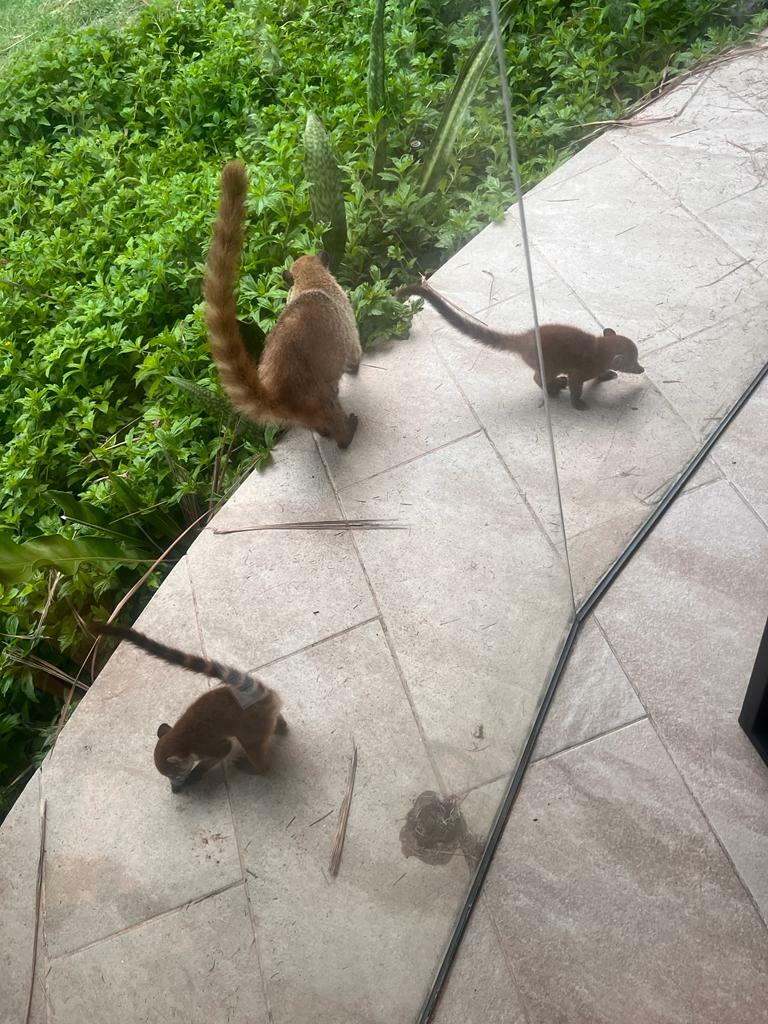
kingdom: Animalia
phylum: Chordata
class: Mammalia
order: Carnivora
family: Procyonidae
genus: Nasua
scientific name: Nasua narica
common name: White-nosed coati
